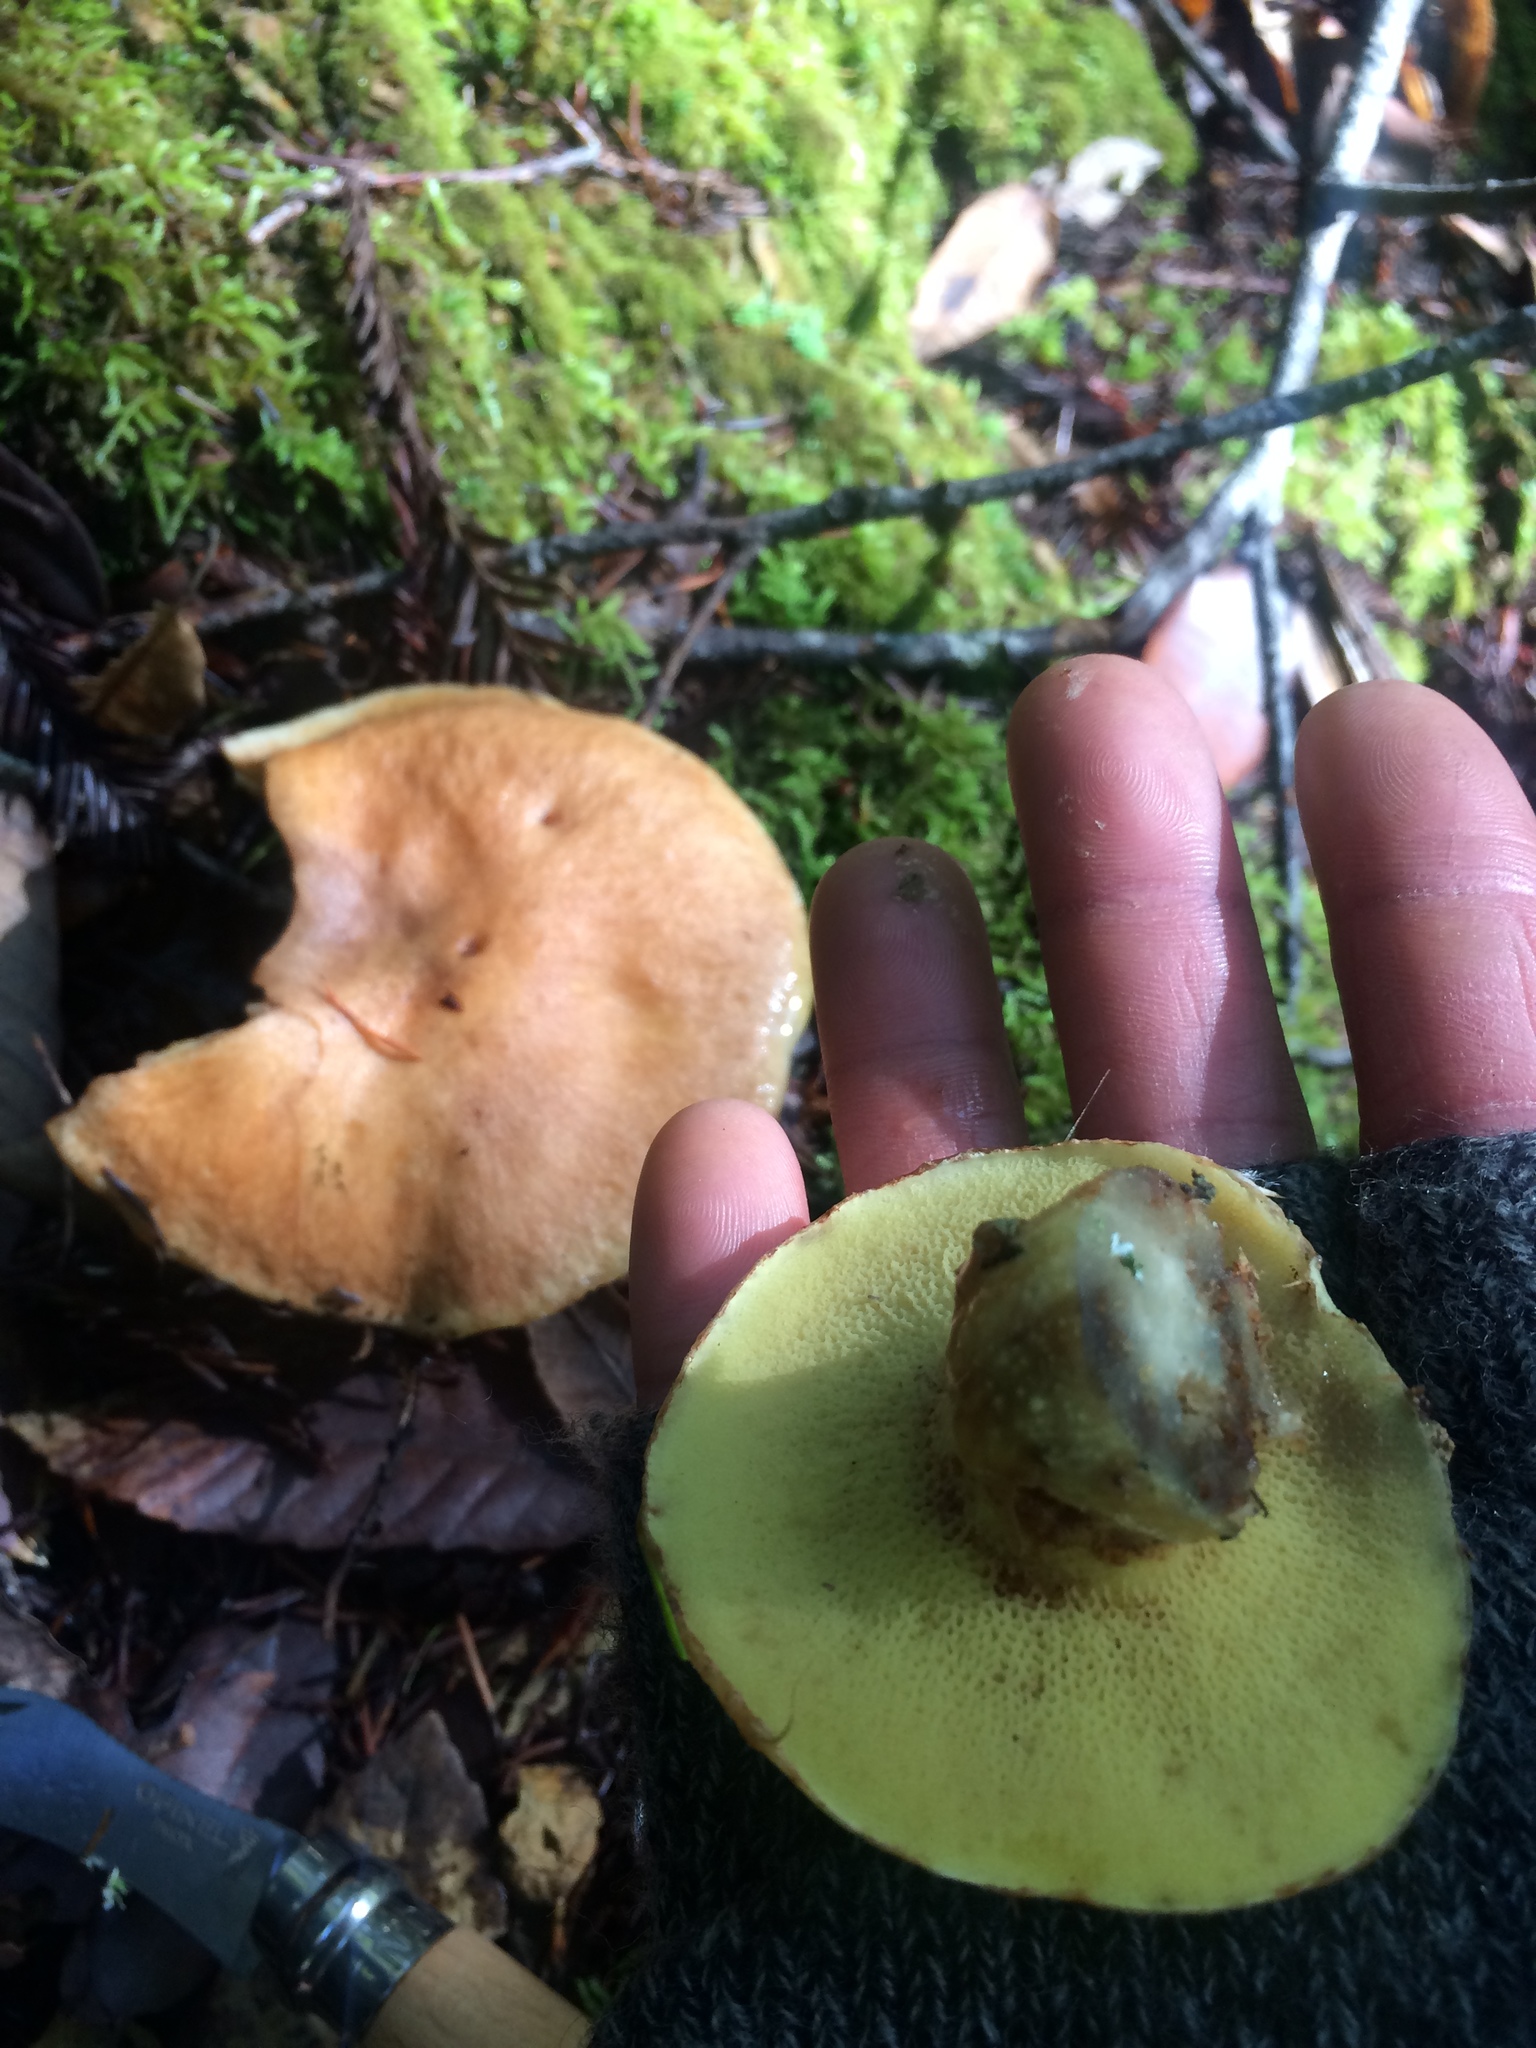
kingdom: Fungi
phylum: Basidiomycota
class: Agaricomycetes
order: Boletales
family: Suillaceae
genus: Suillus
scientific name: Suillus caerulescens
